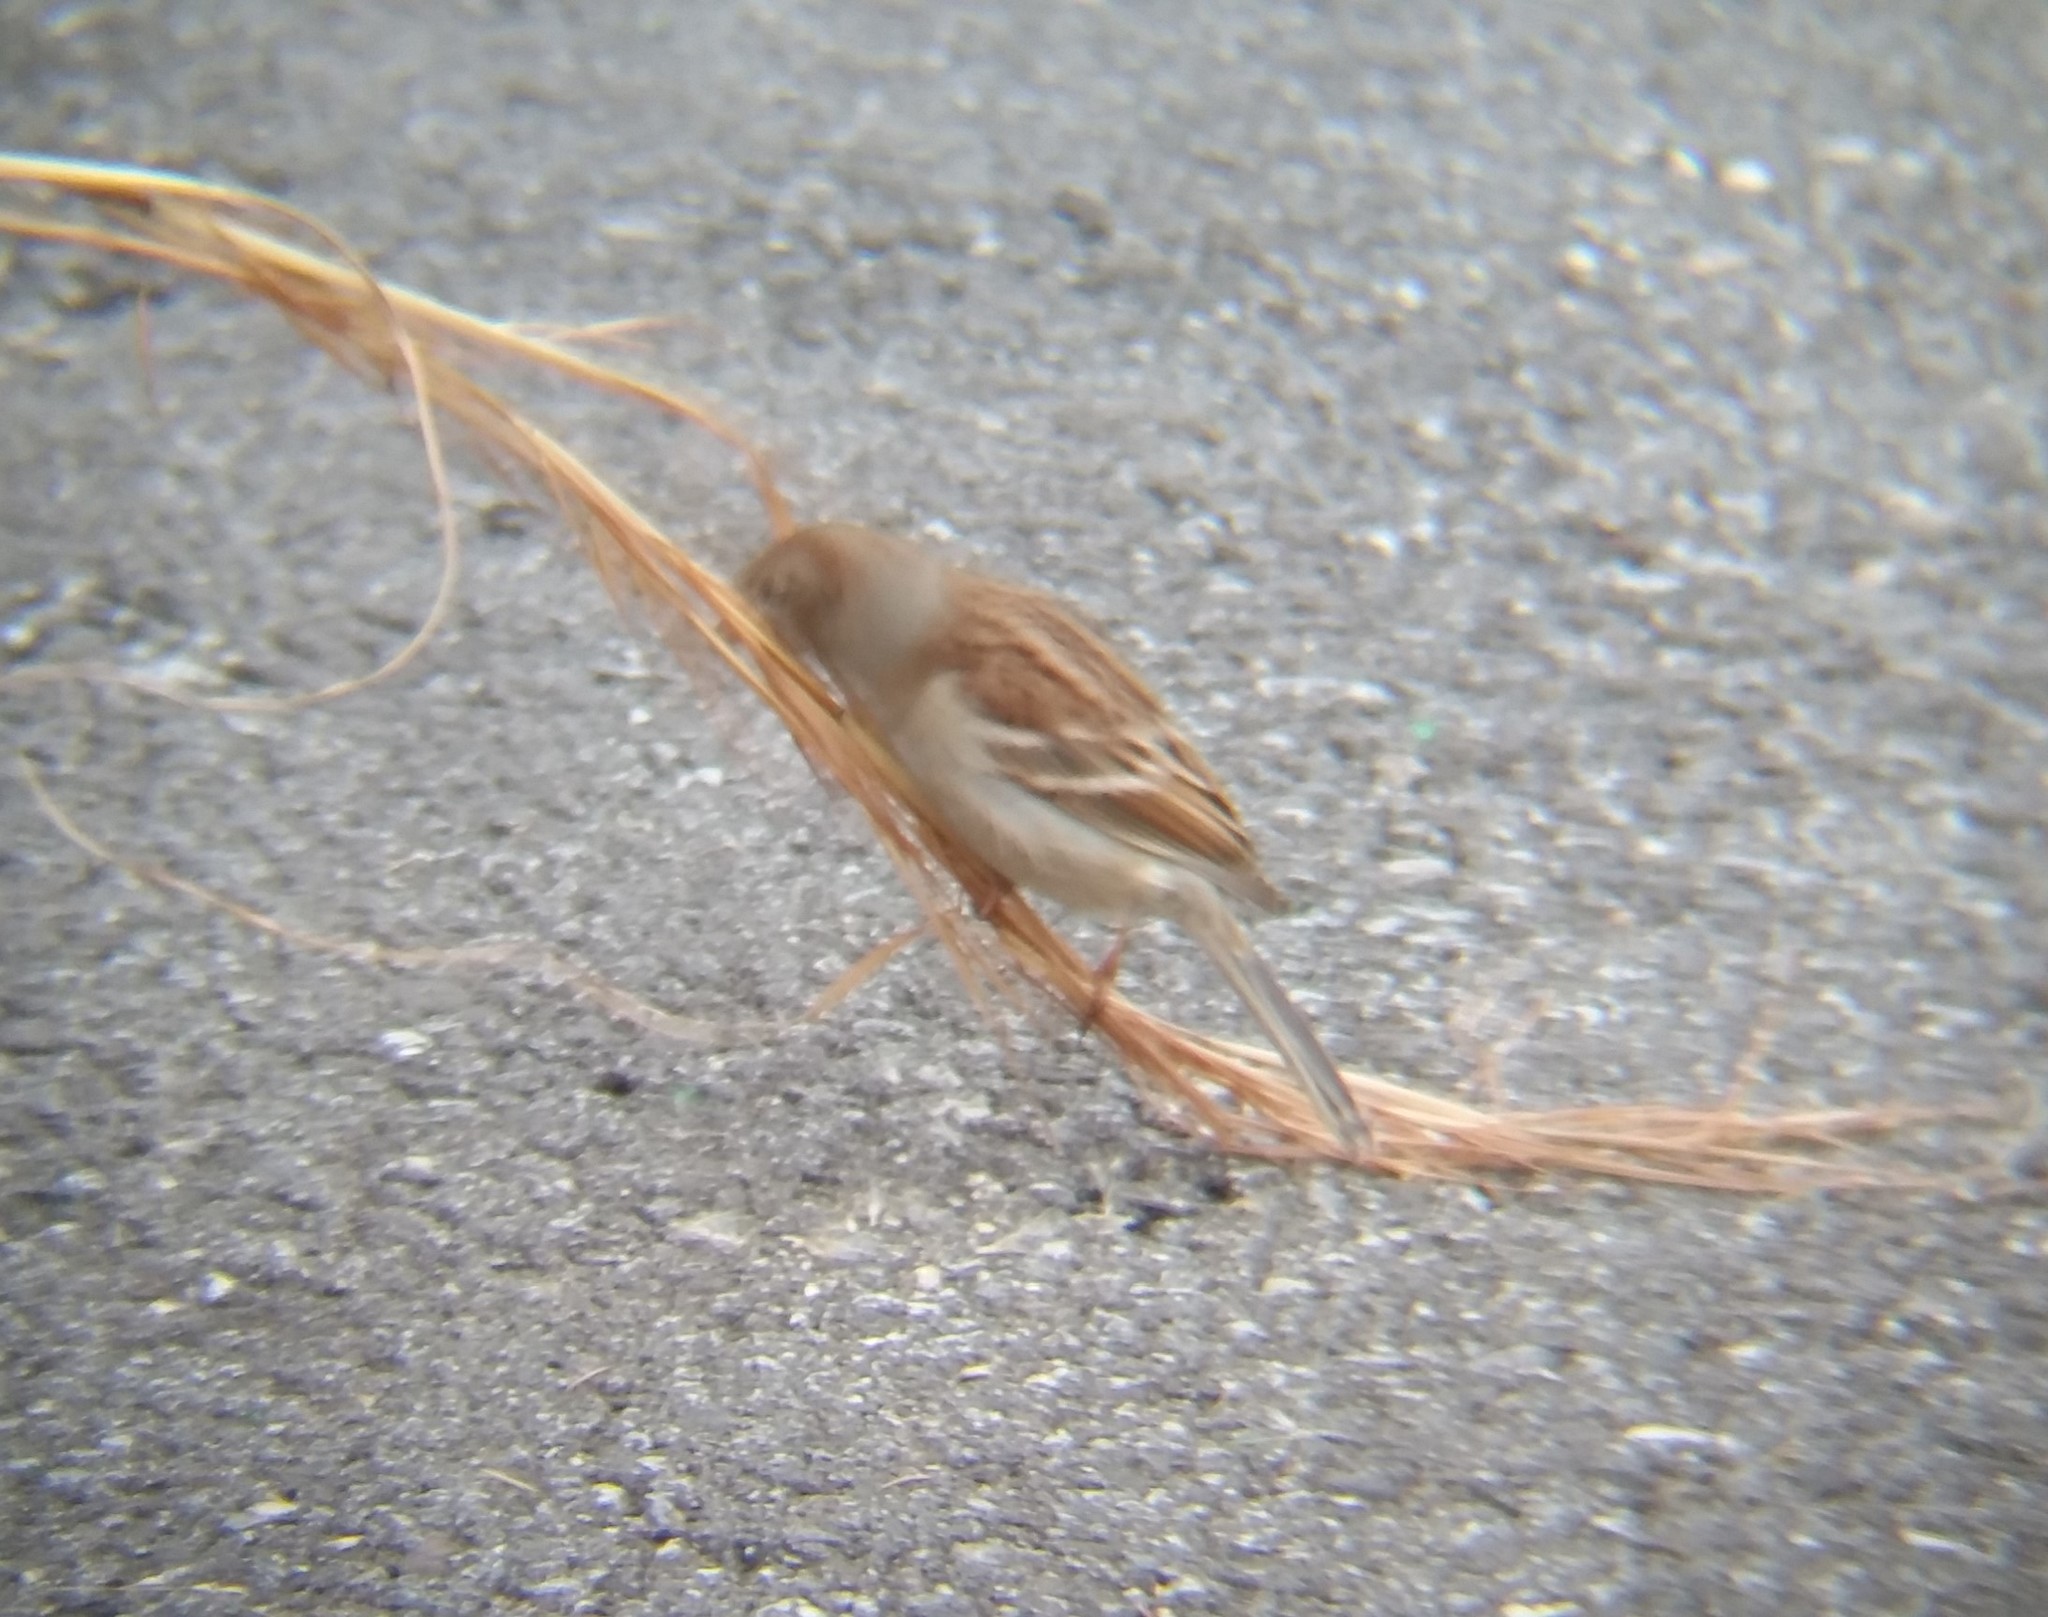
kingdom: Animalia
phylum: Chordata
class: Aves
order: Passeriformes
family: Passerellidae
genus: Spizella
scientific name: Spizella pusilla
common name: Field sparrow
